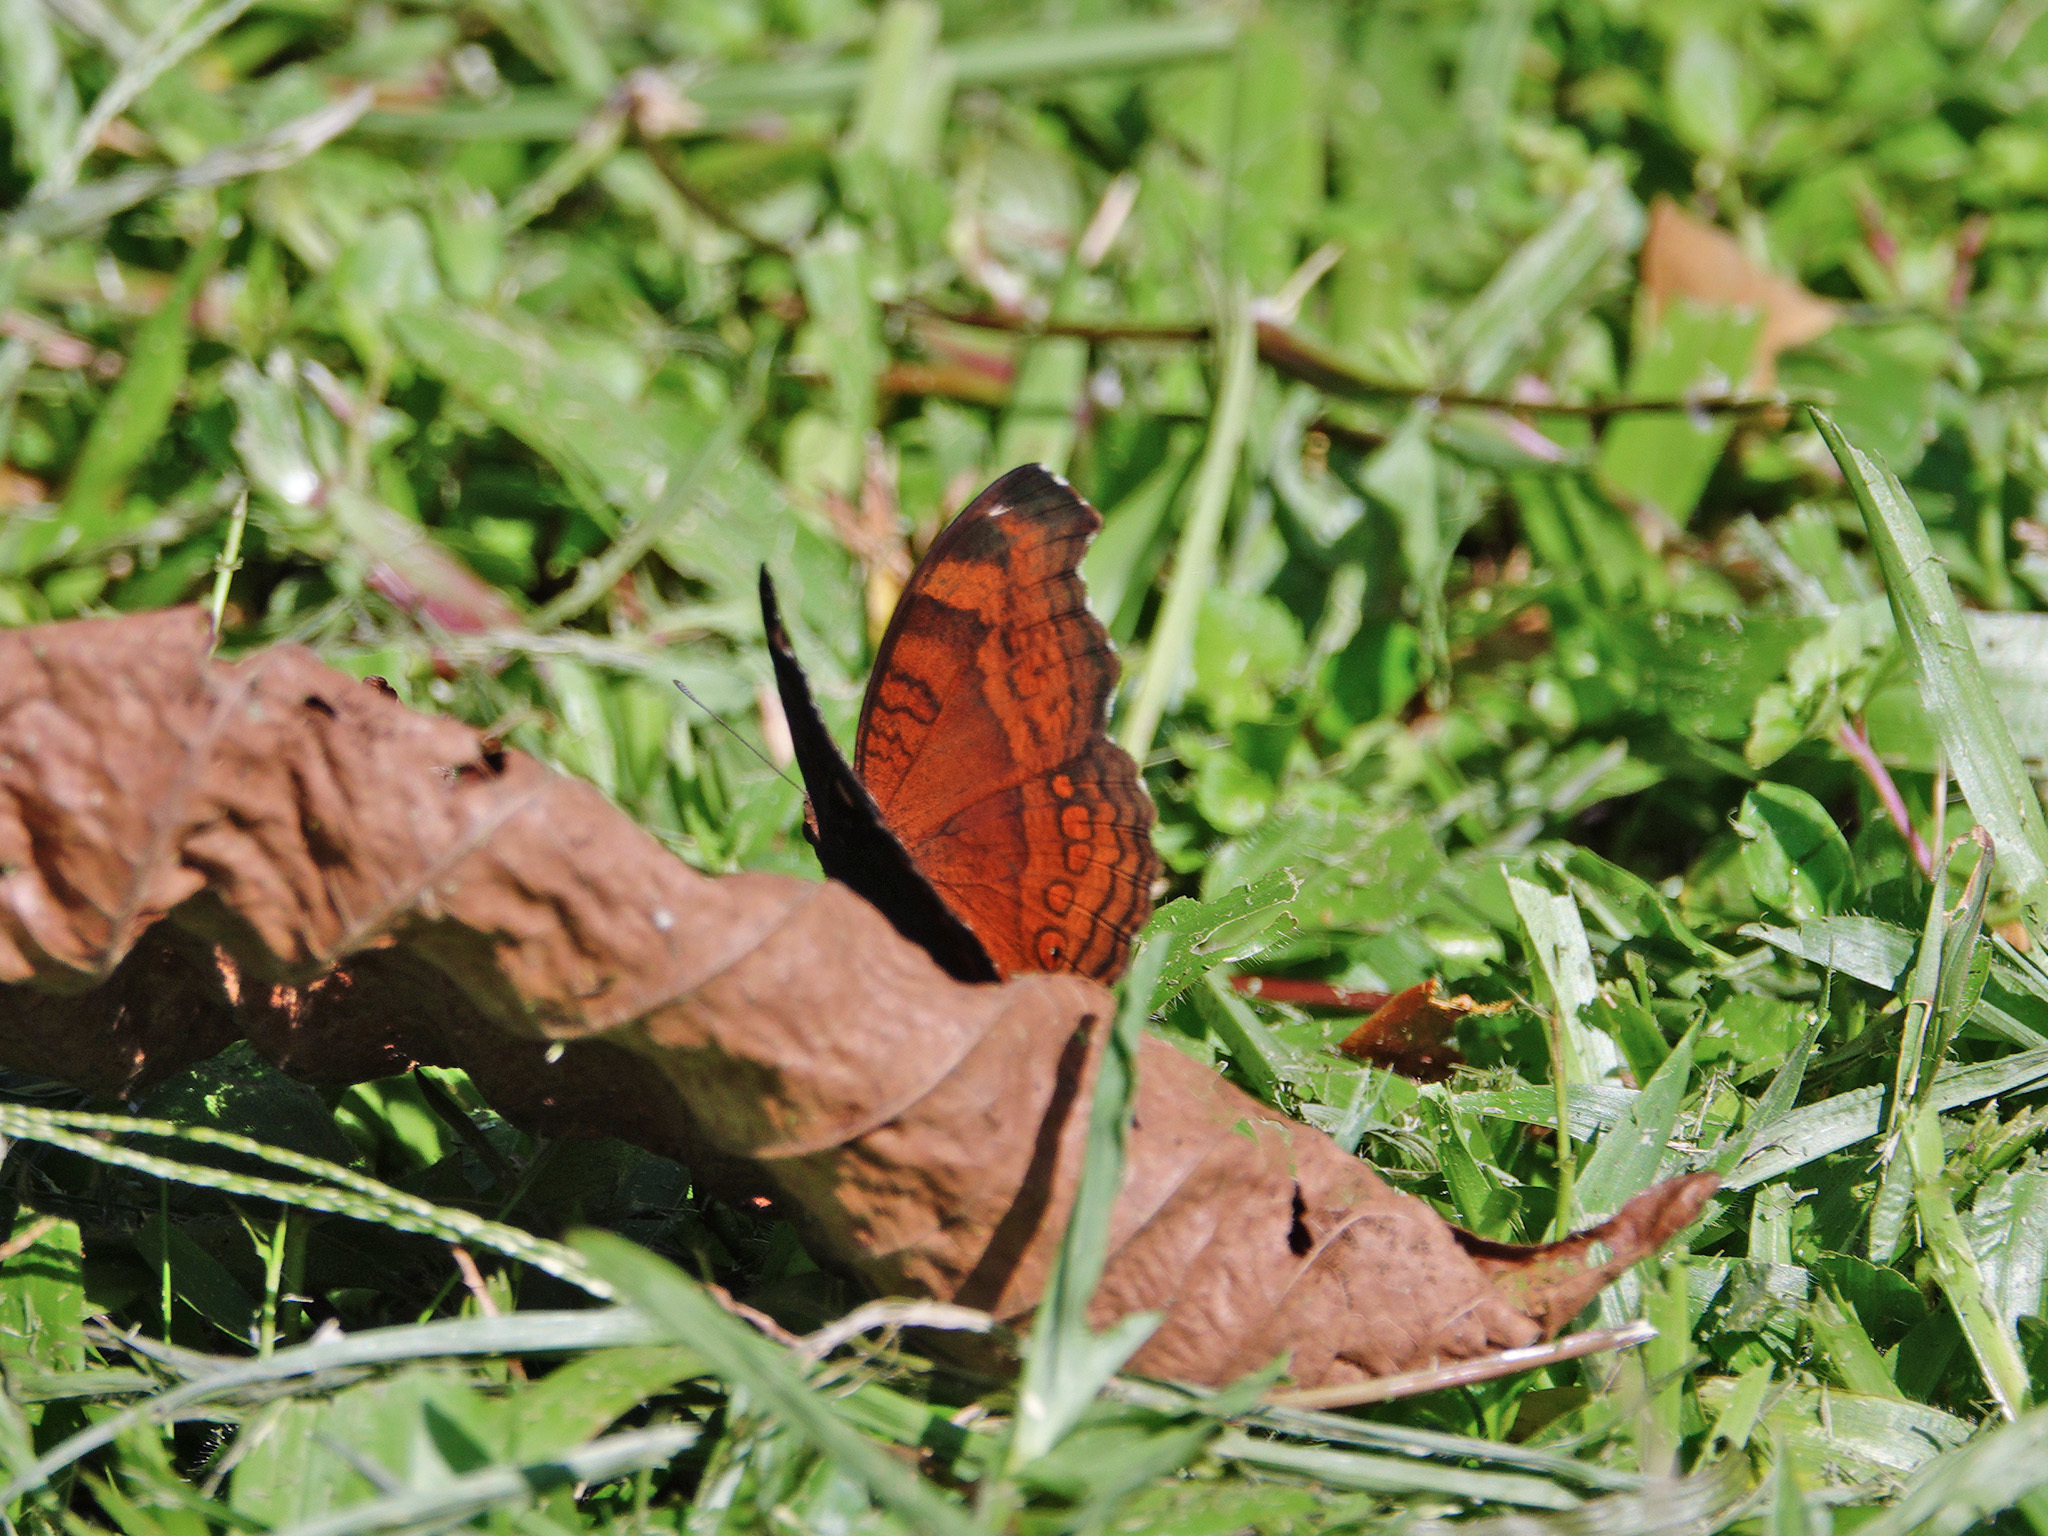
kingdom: Animalia
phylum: Arthropoda
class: Insecta
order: Lepidoptera
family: Nymphalidae
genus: Junonia
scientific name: Junonia hedonia
